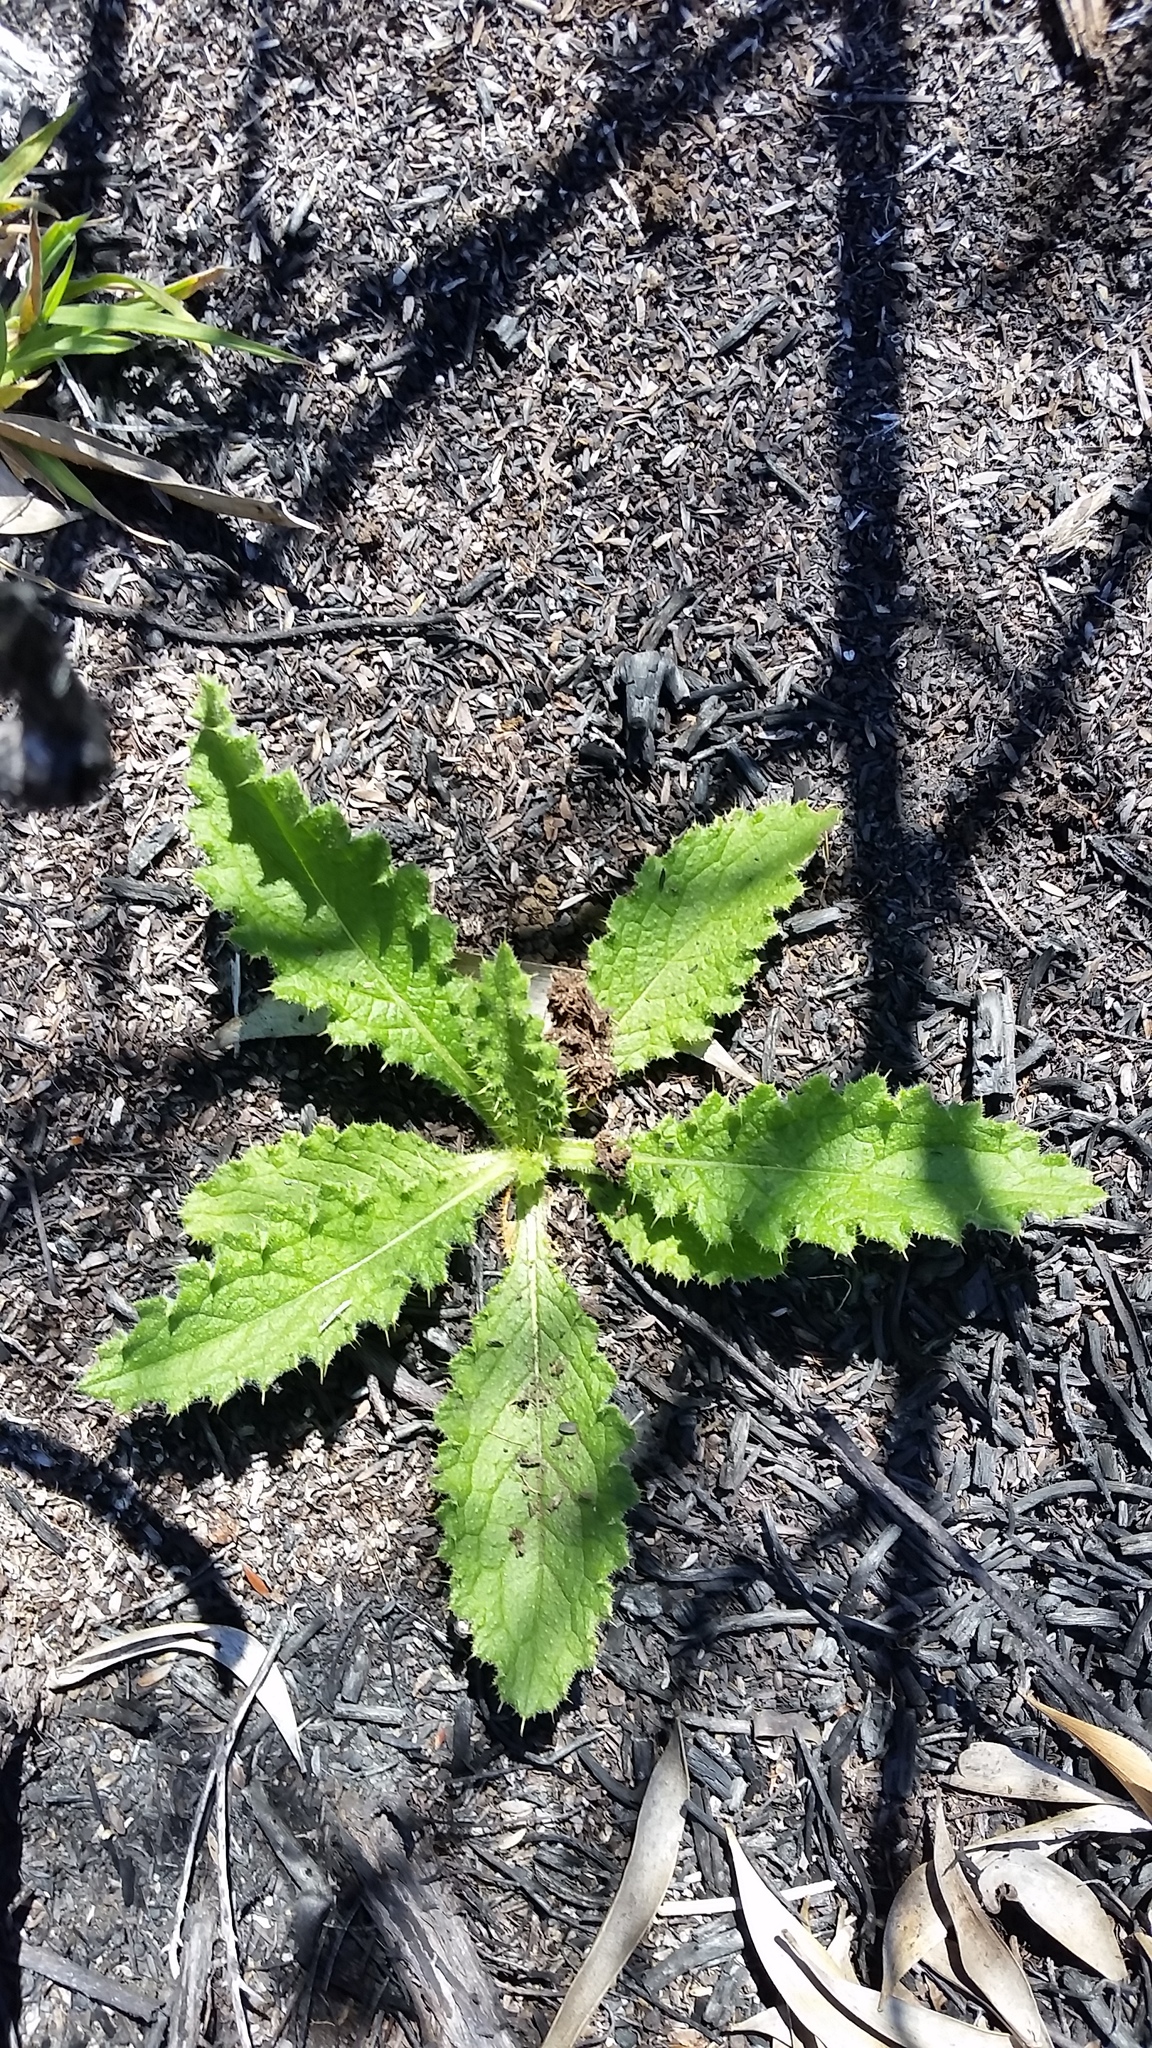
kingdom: Plantae
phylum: Tracheophyta
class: Magnoliopsida
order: Asterales
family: Asteraceae
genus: Cirsium
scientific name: Cirsium vulgare
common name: Bull thistle
